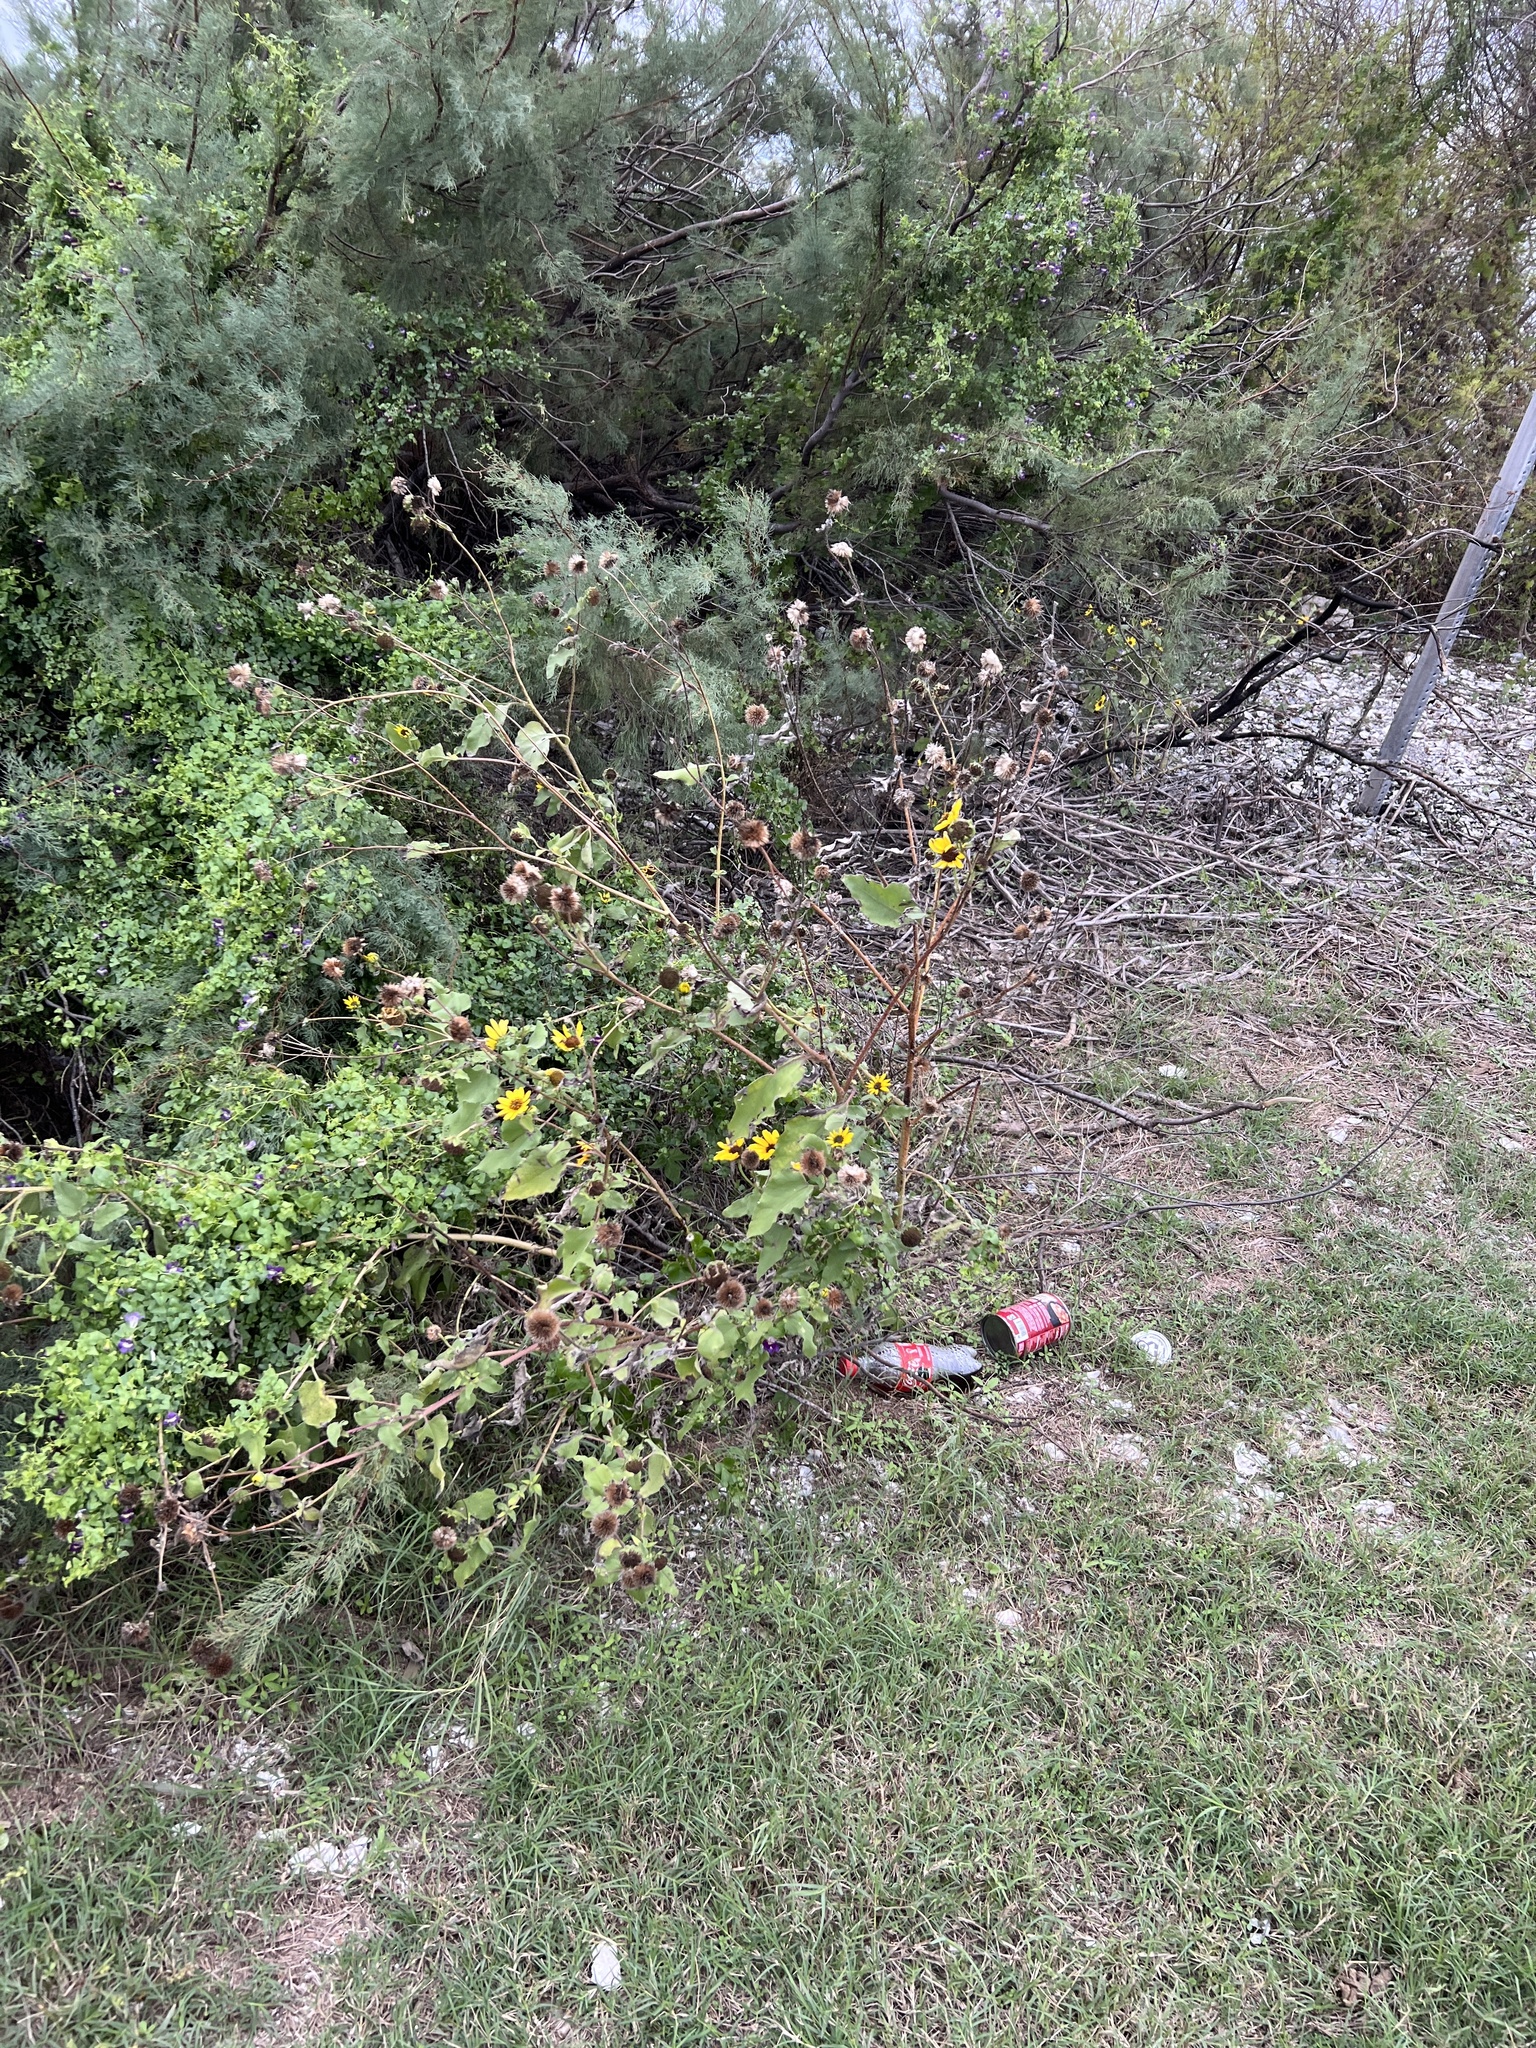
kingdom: Plantae
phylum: Tracheophyta
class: Magnoliopsida
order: Asterales
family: Asteraceae
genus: Helianthus
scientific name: Helianthus annuus
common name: Sunflower
